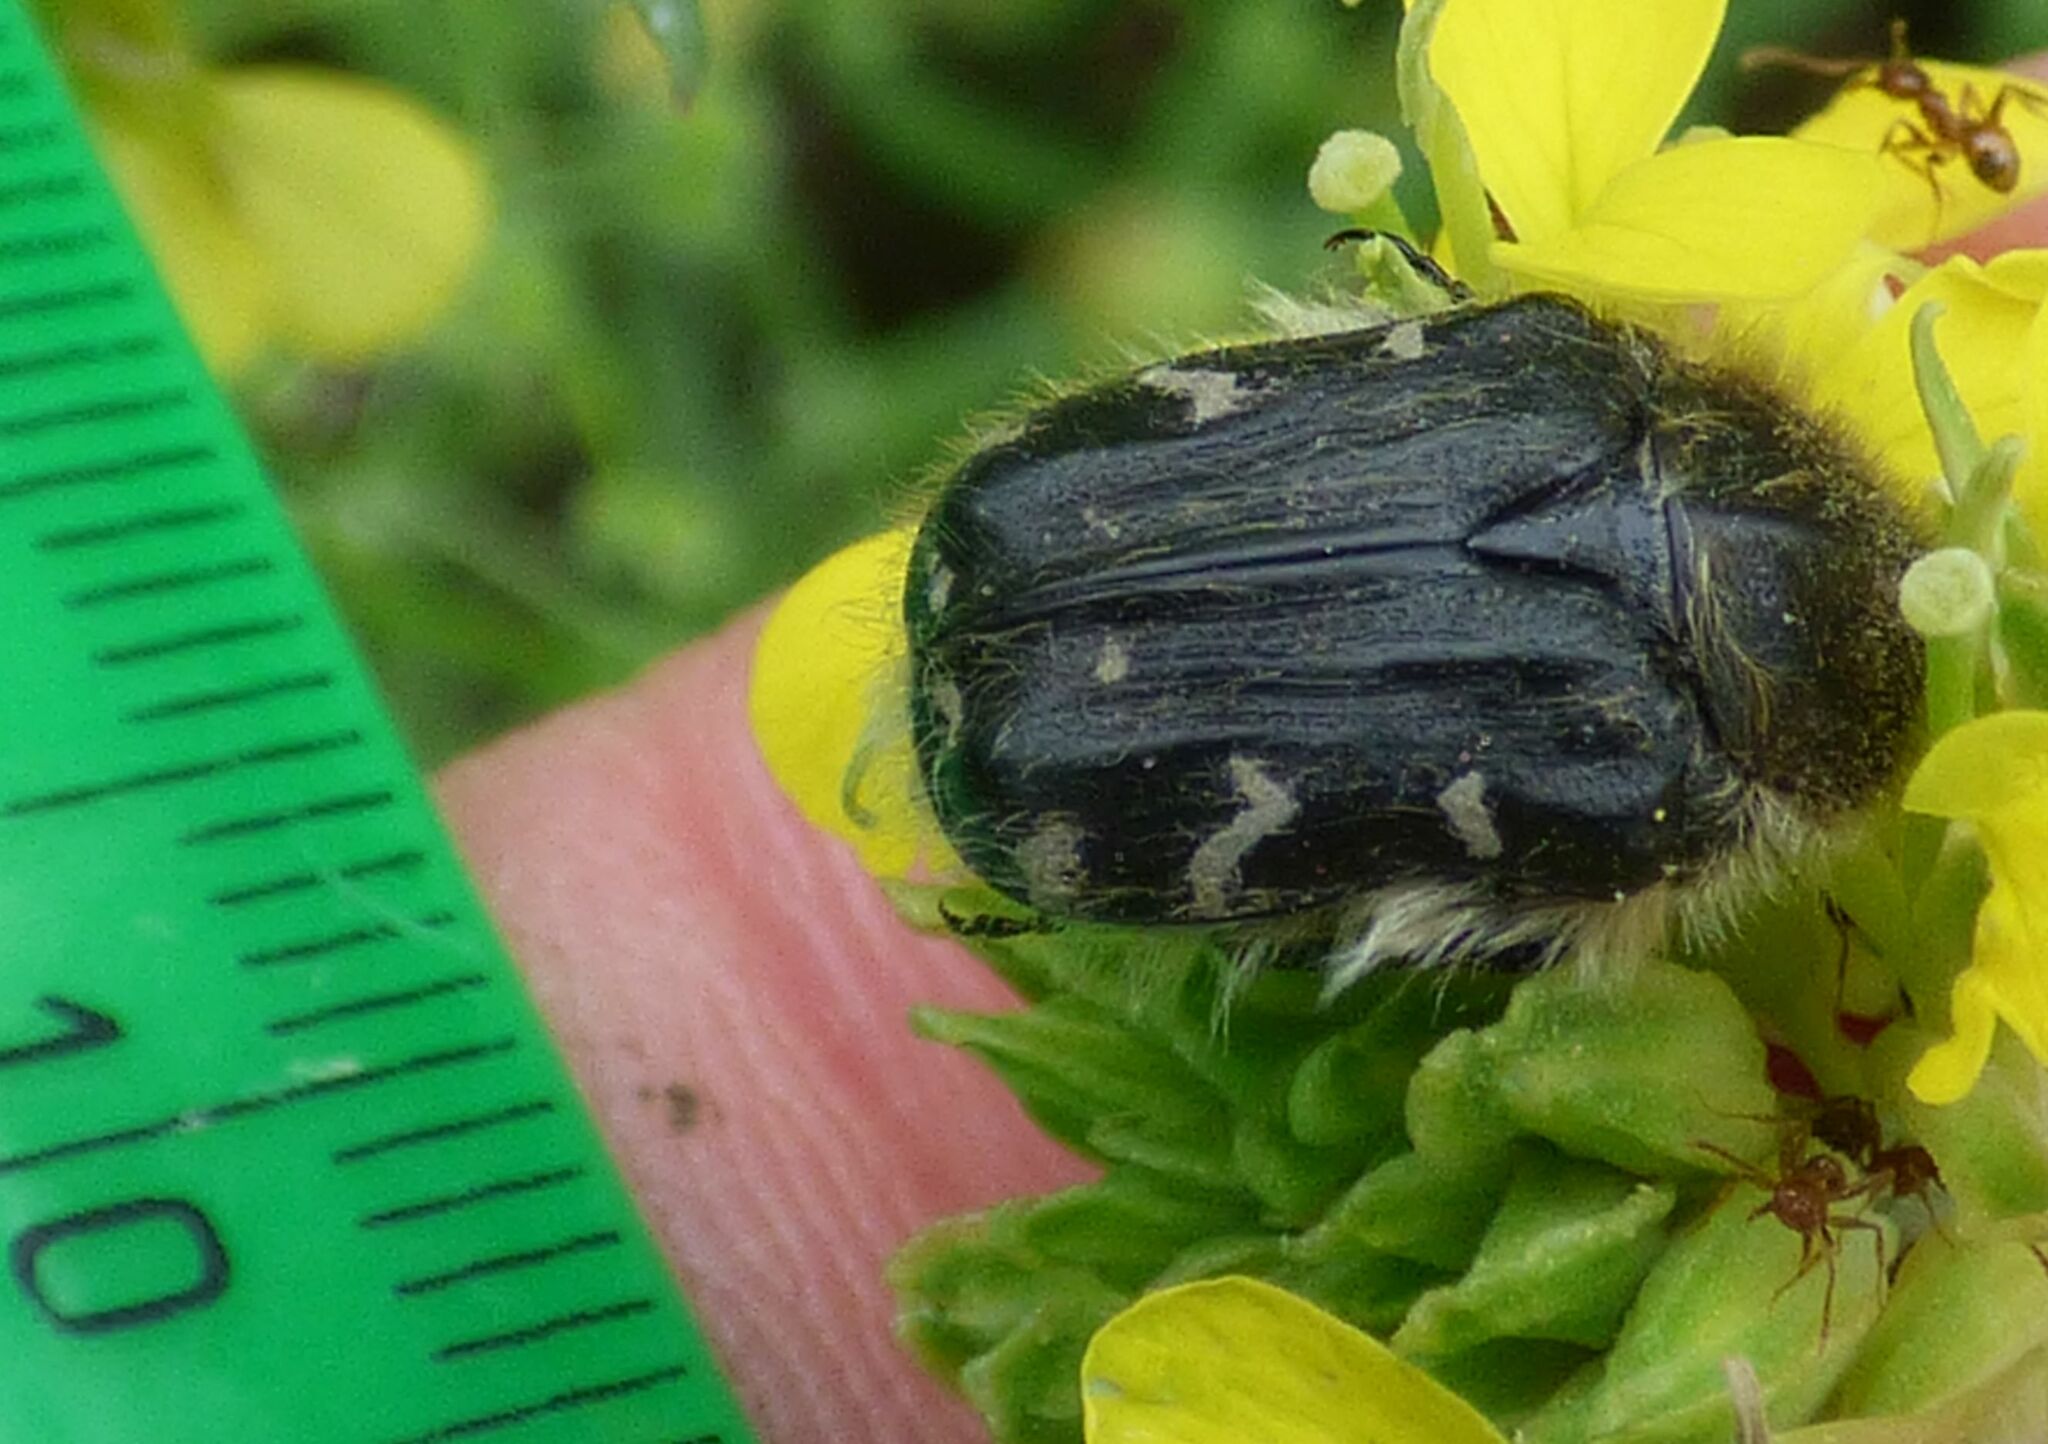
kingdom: Animalia
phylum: Arthropoda
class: Insecta
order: Coleoptera
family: Scarabaeidae
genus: Tropinota
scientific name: Tropinota hirta
